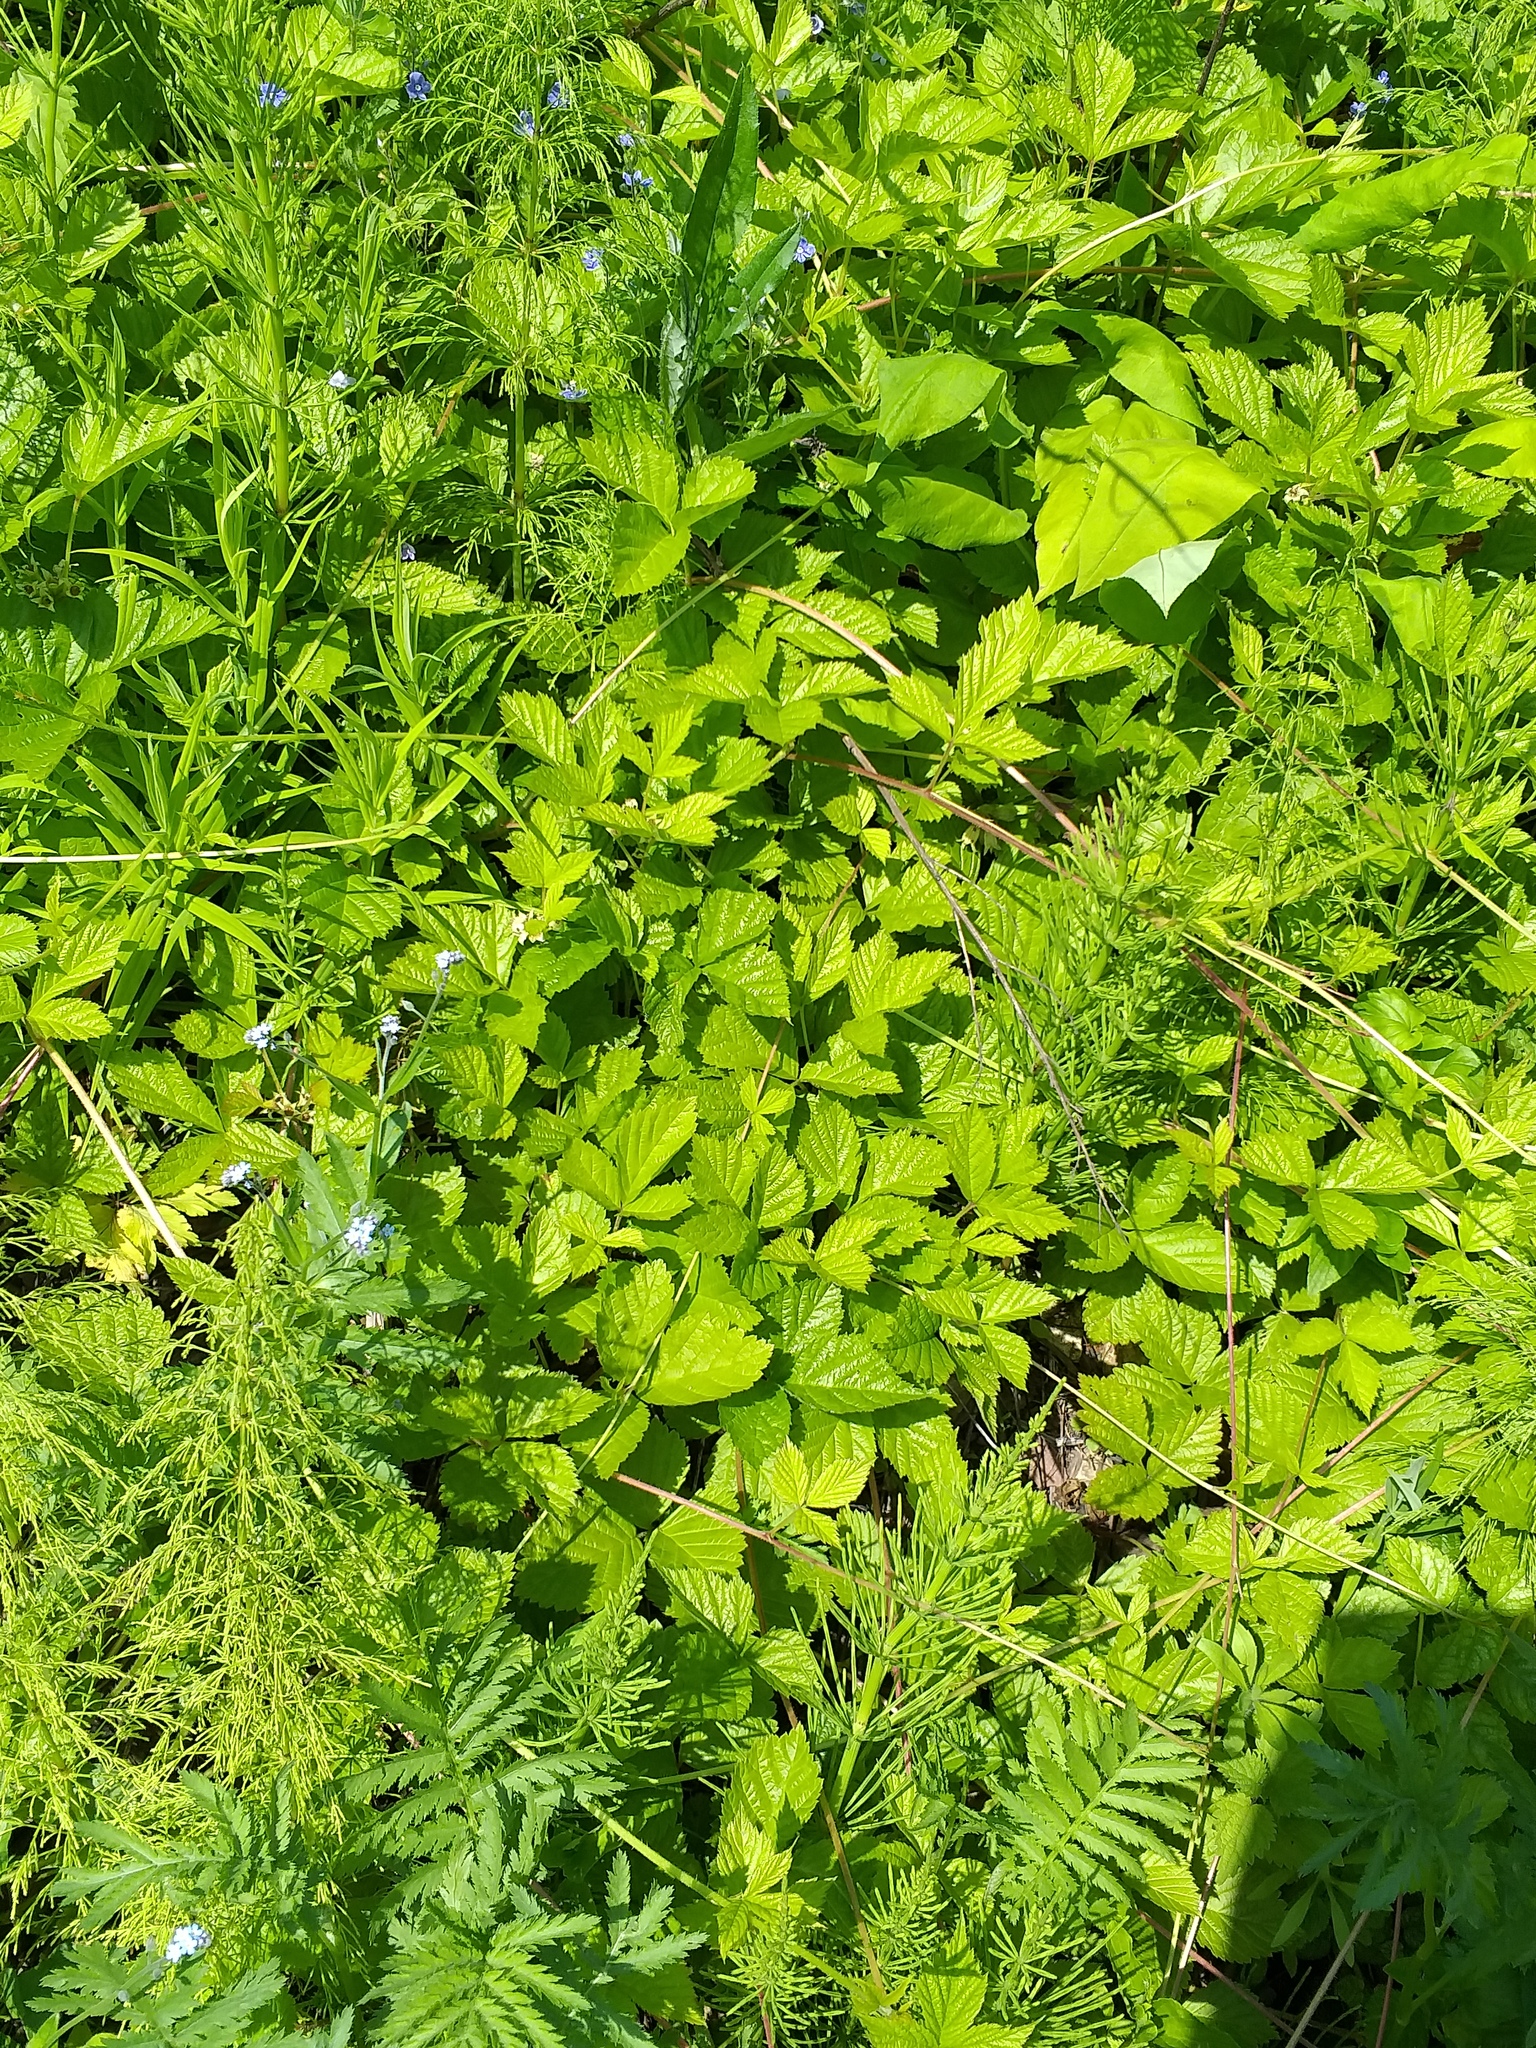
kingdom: Plantae
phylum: Tracheophyta
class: Magnoliopsida
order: Rosales
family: Rosaceae
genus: Rubus
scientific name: Rubus saxatilis
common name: Stone bramble
